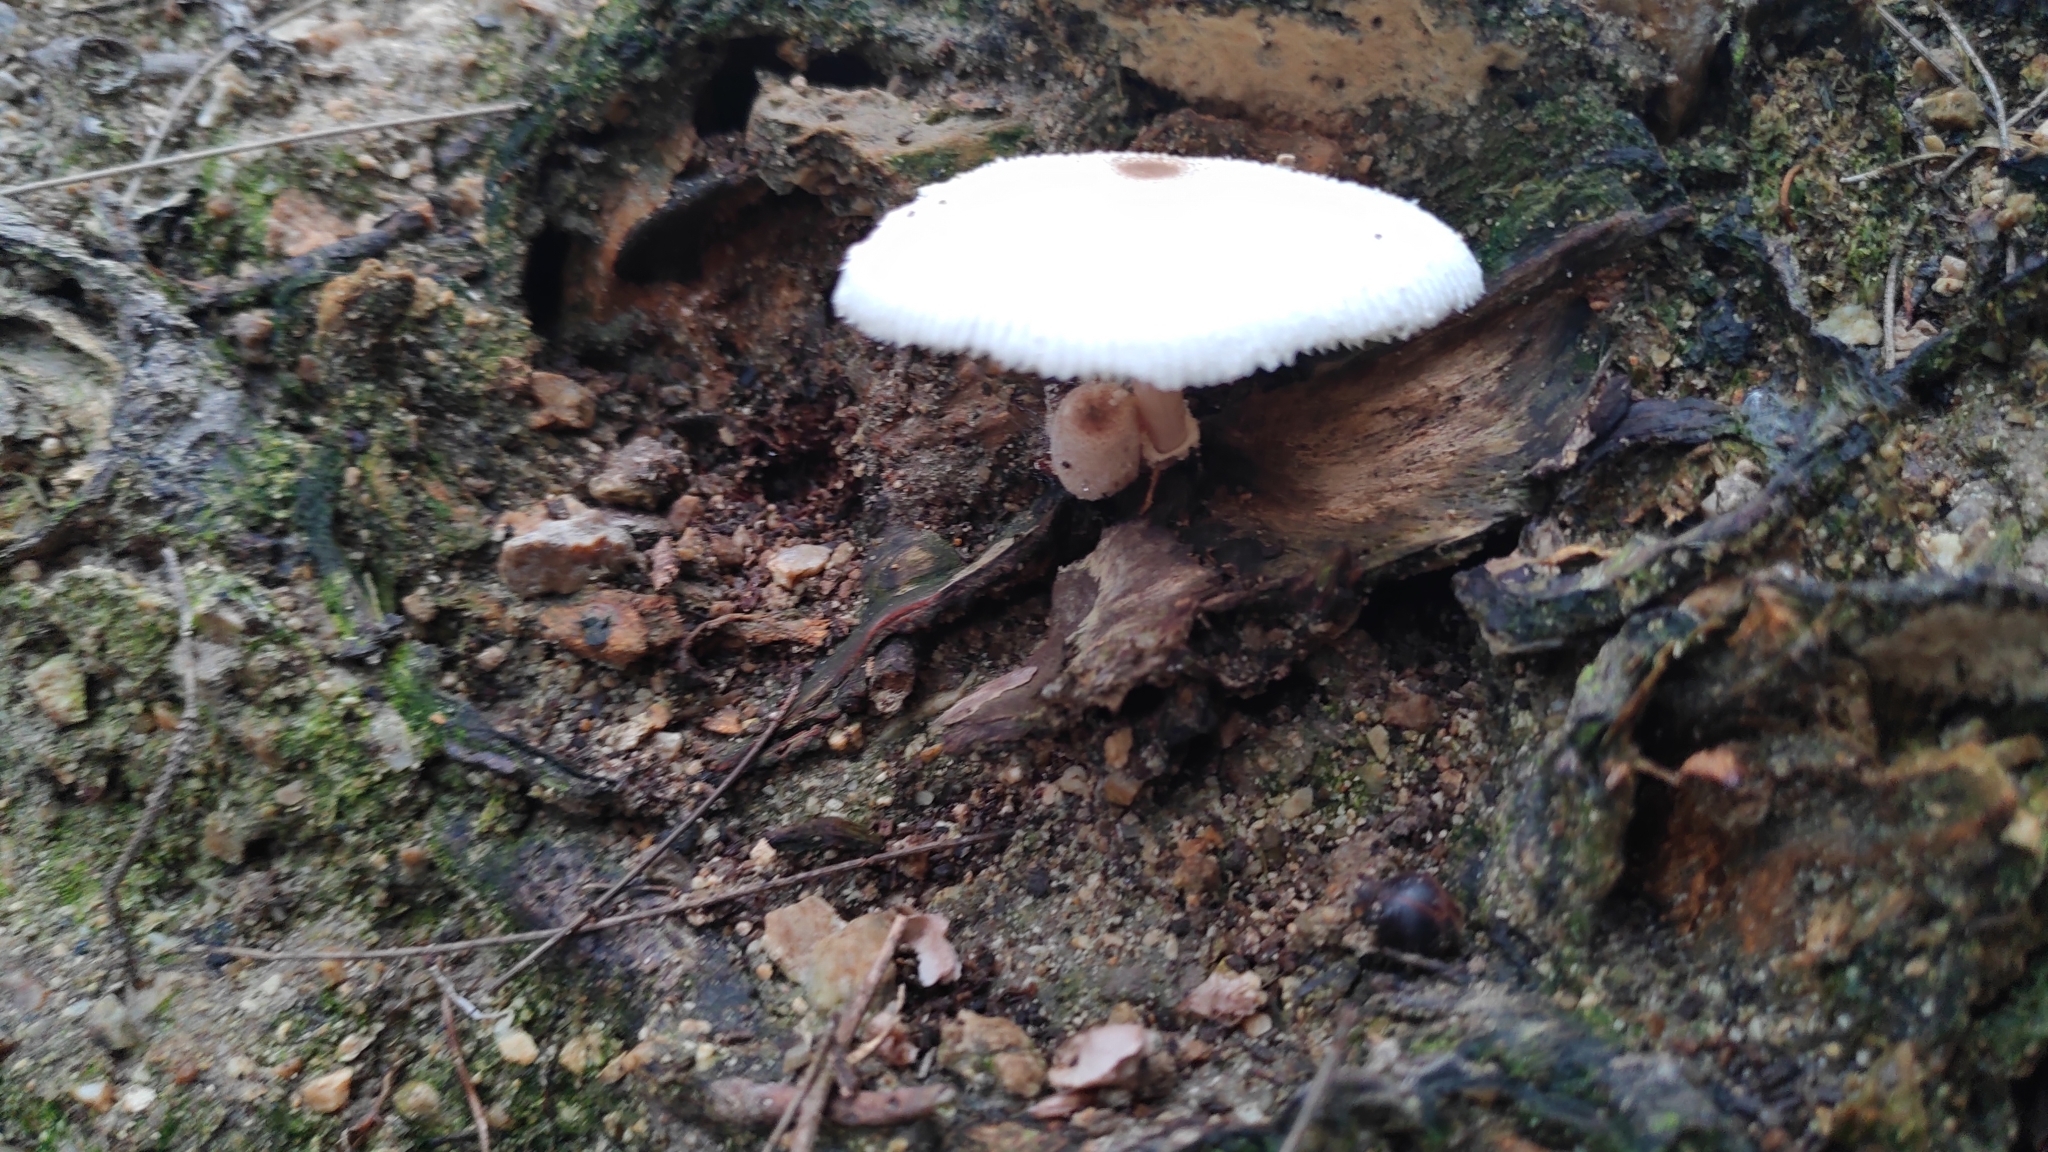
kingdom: Fungi
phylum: Basidiomycota
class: Agaricomycetes
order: Agaricales
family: Agaricaceae
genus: Leucocoprinus
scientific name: Leucocoprinus cepistipes
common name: Onion-stalk parasol
